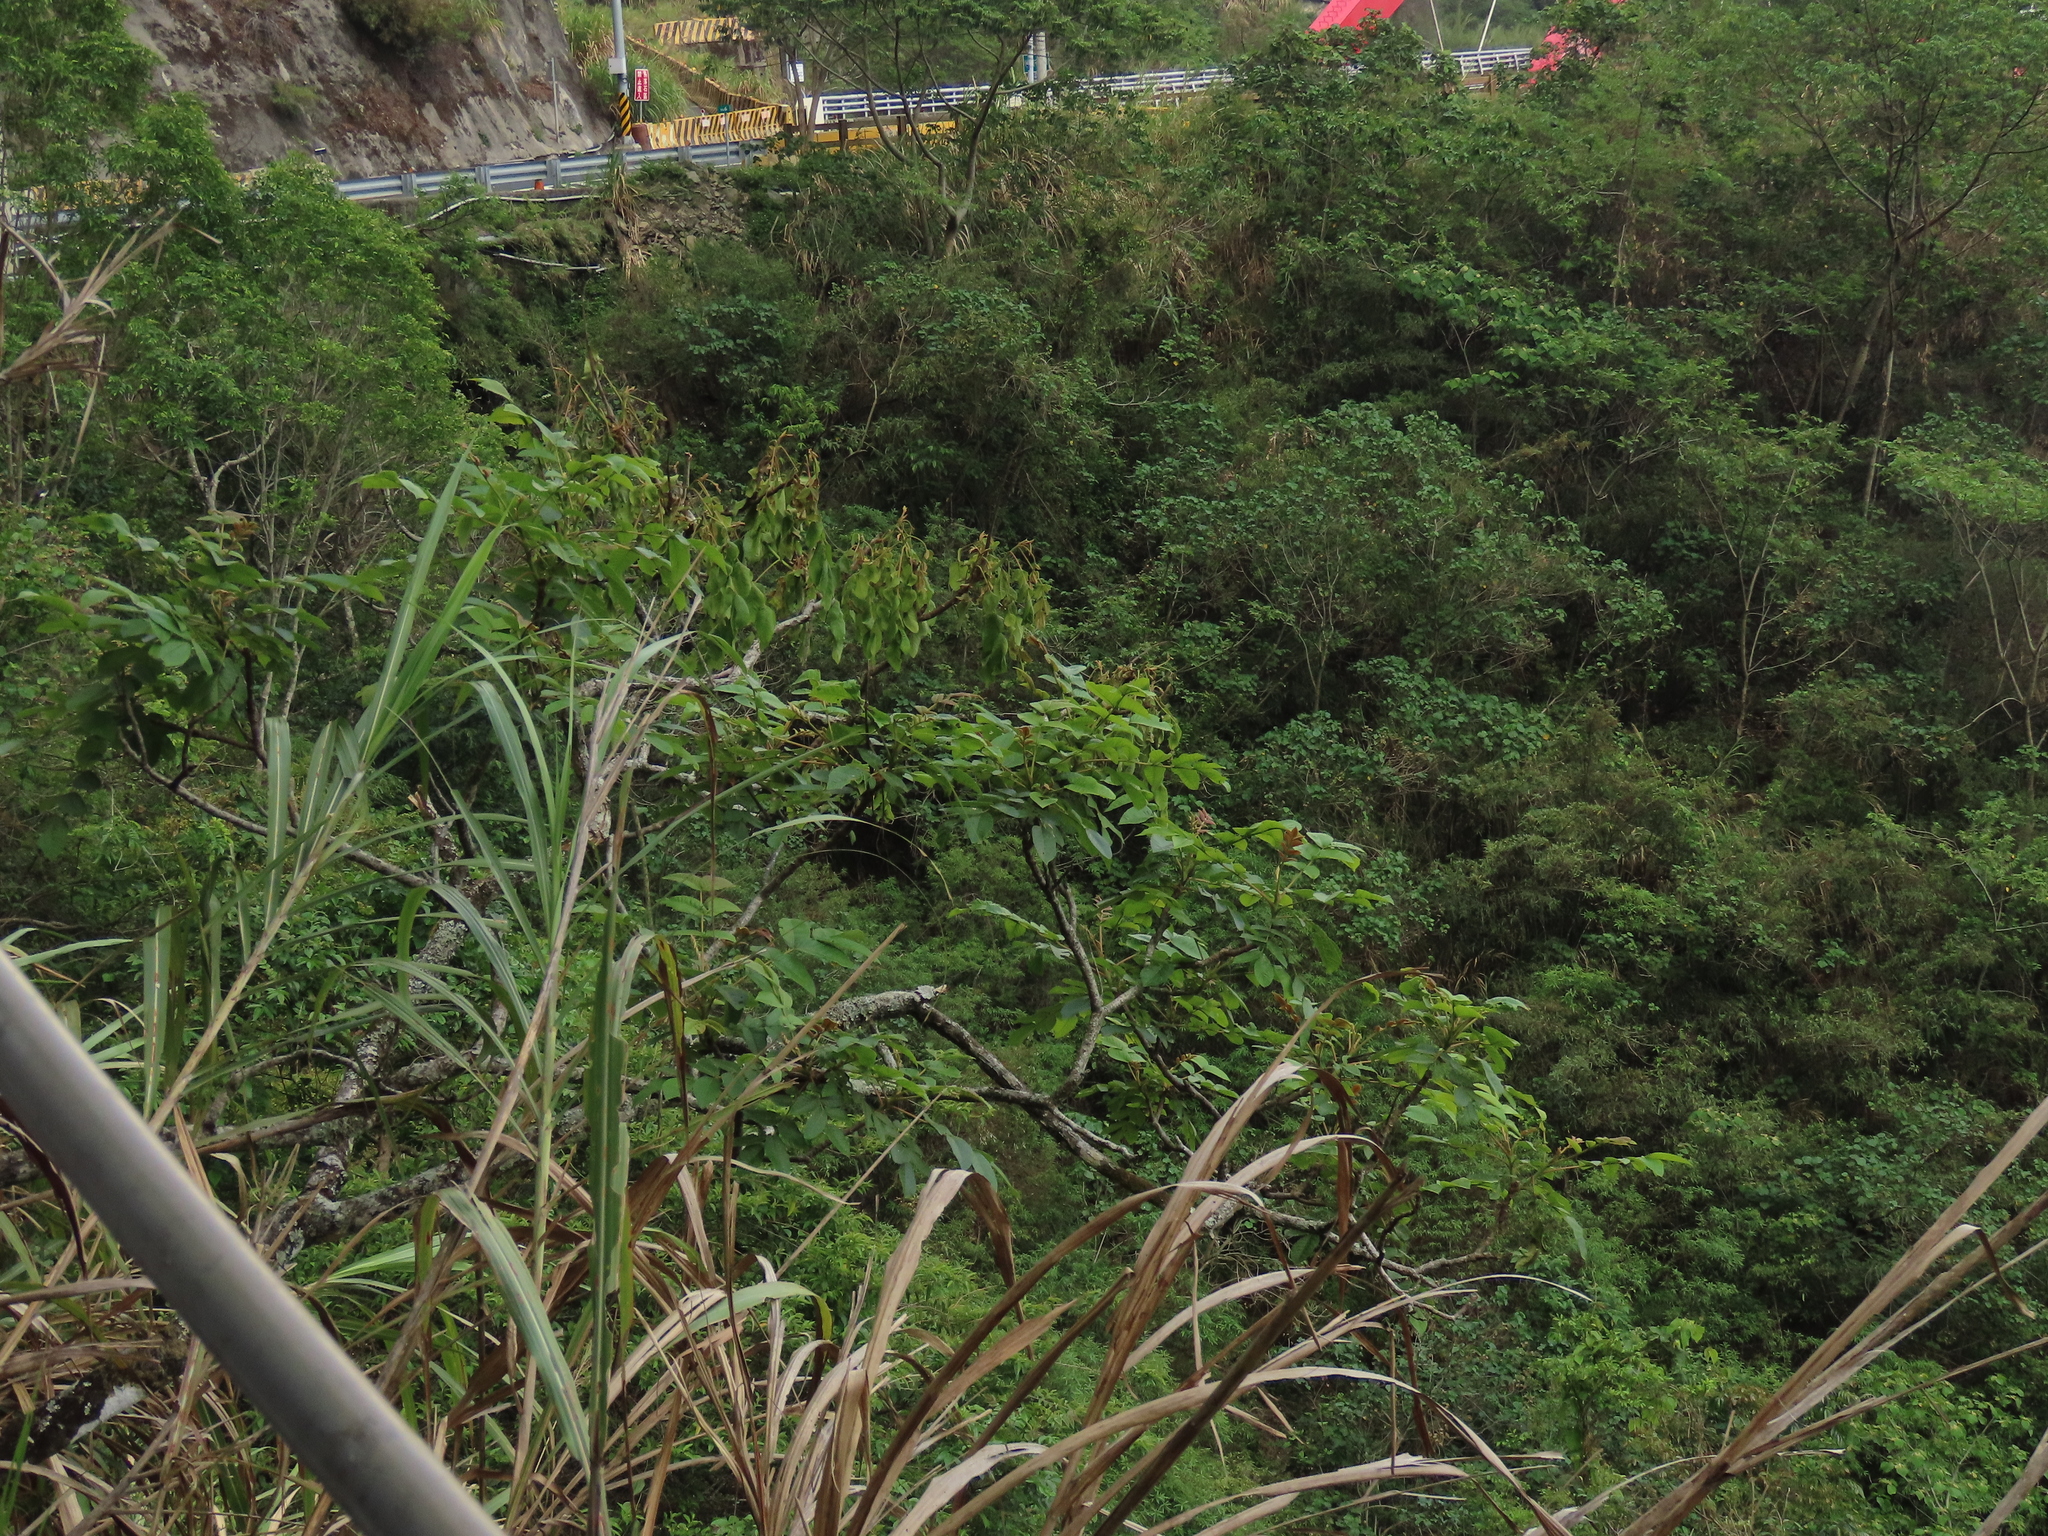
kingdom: Plantae
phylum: Tracheophyta
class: Magnoliopsida
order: Sapindales
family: Anacardiaceae
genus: Rhus
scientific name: Rhus chinensis
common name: Chinese gall
